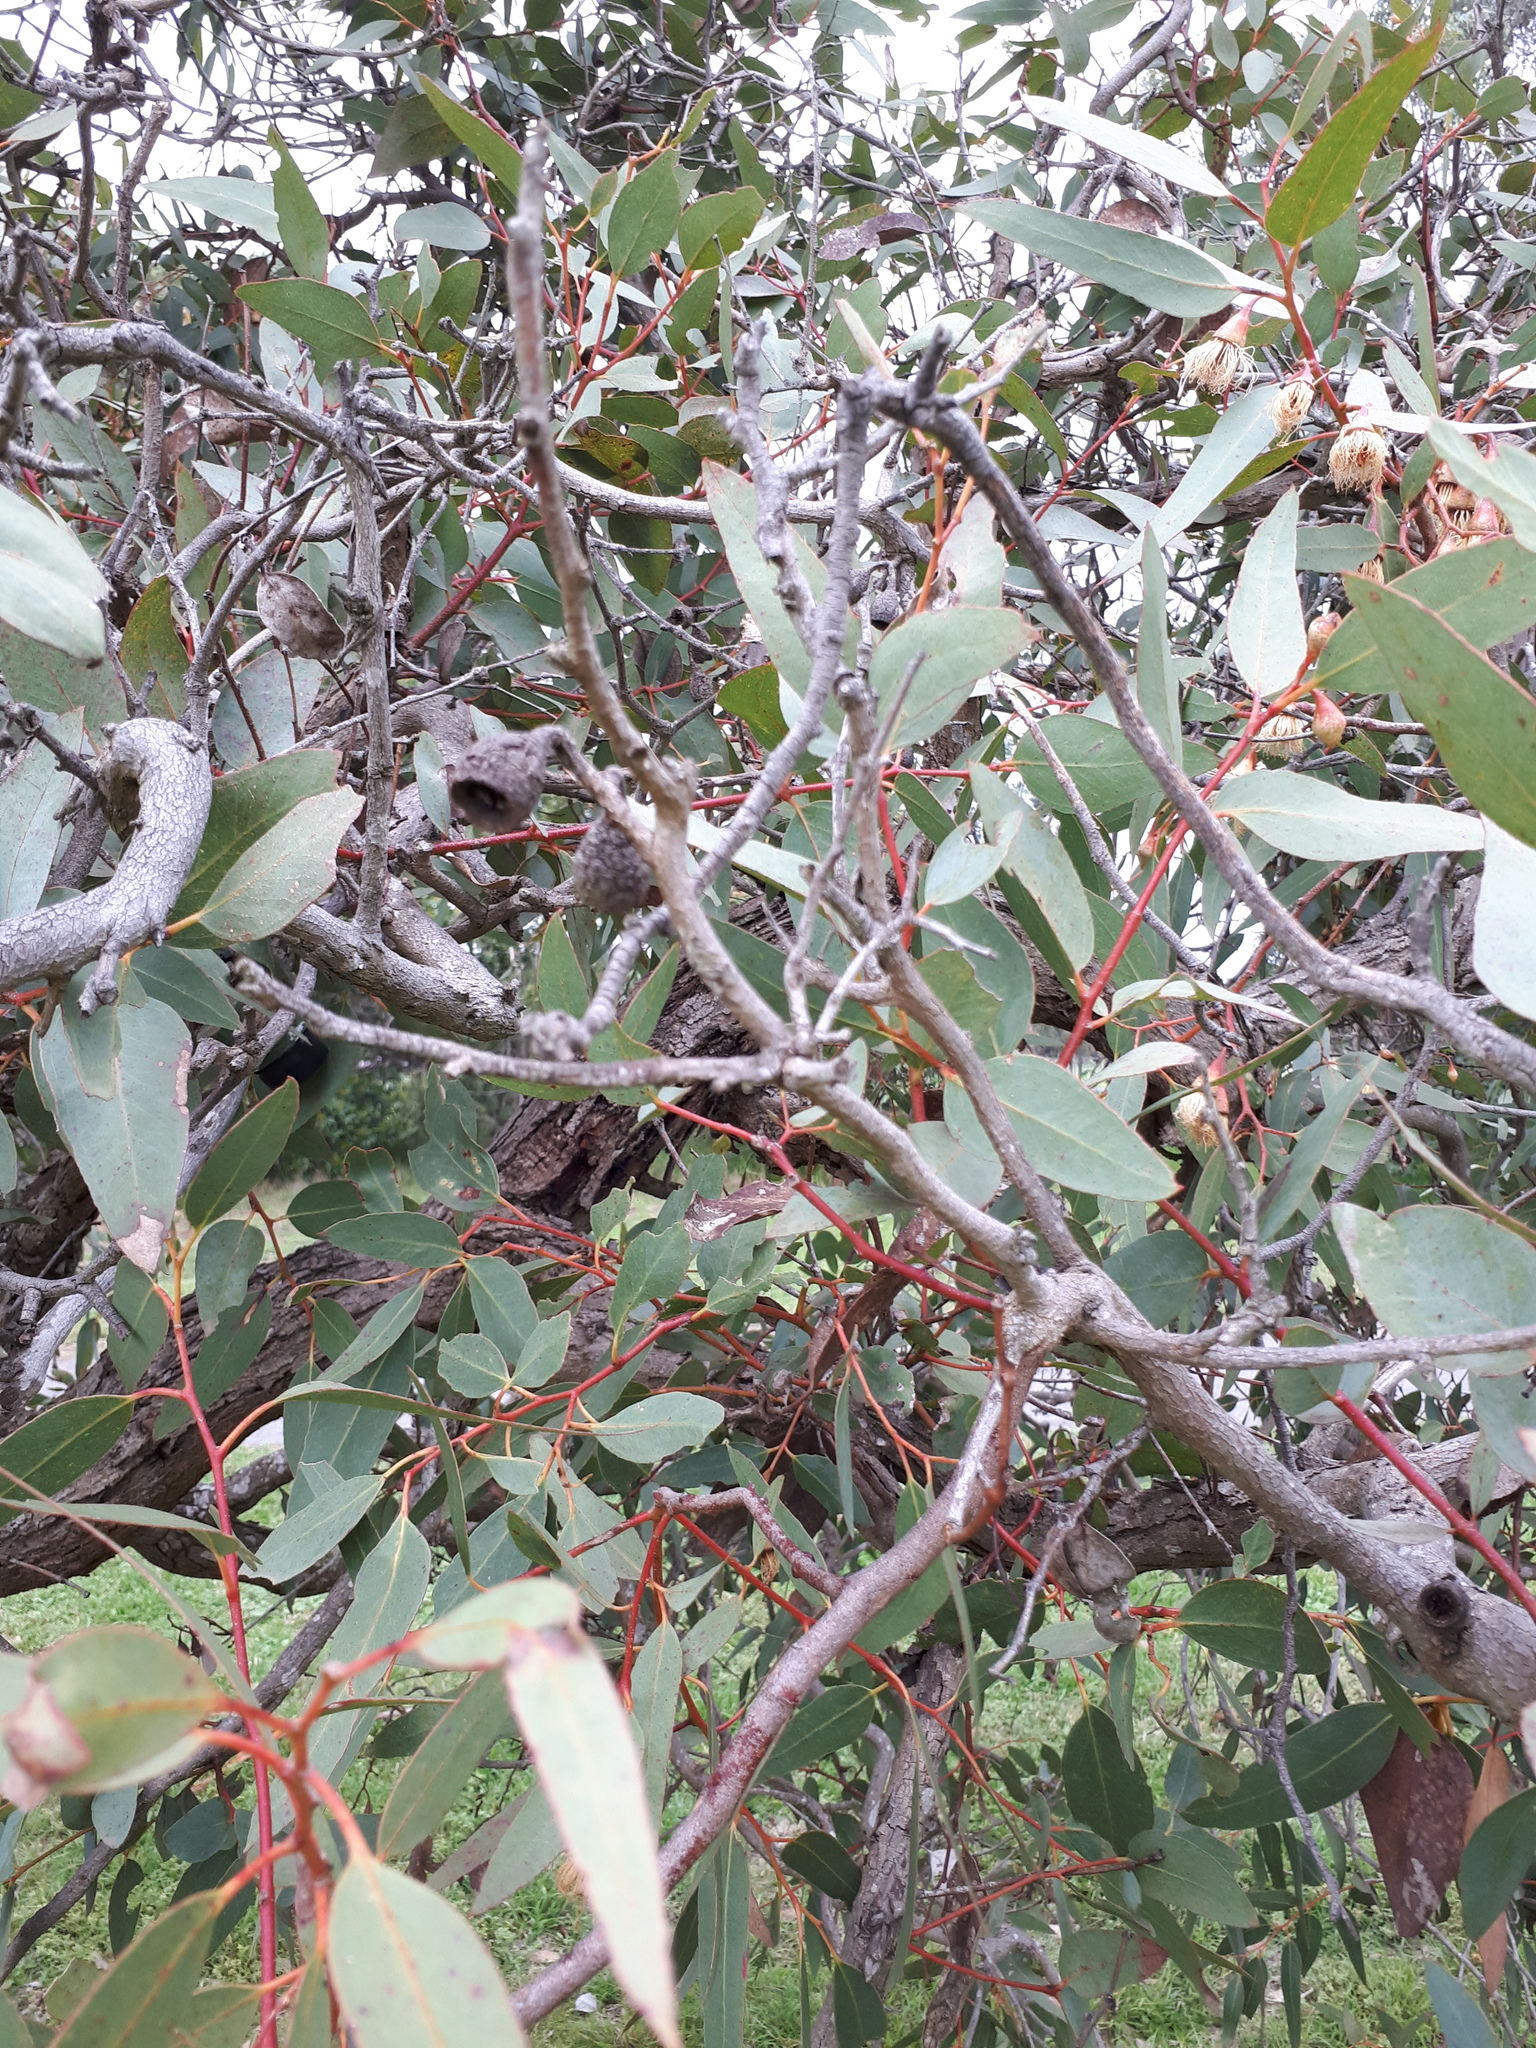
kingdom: Plantae
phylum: Tracheophyta
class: Magnoliopsida
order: Myrtales
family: Myrtaceae
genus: Eucalyptus
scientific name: Eucalyptus leucoxylon
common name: Blue gum
